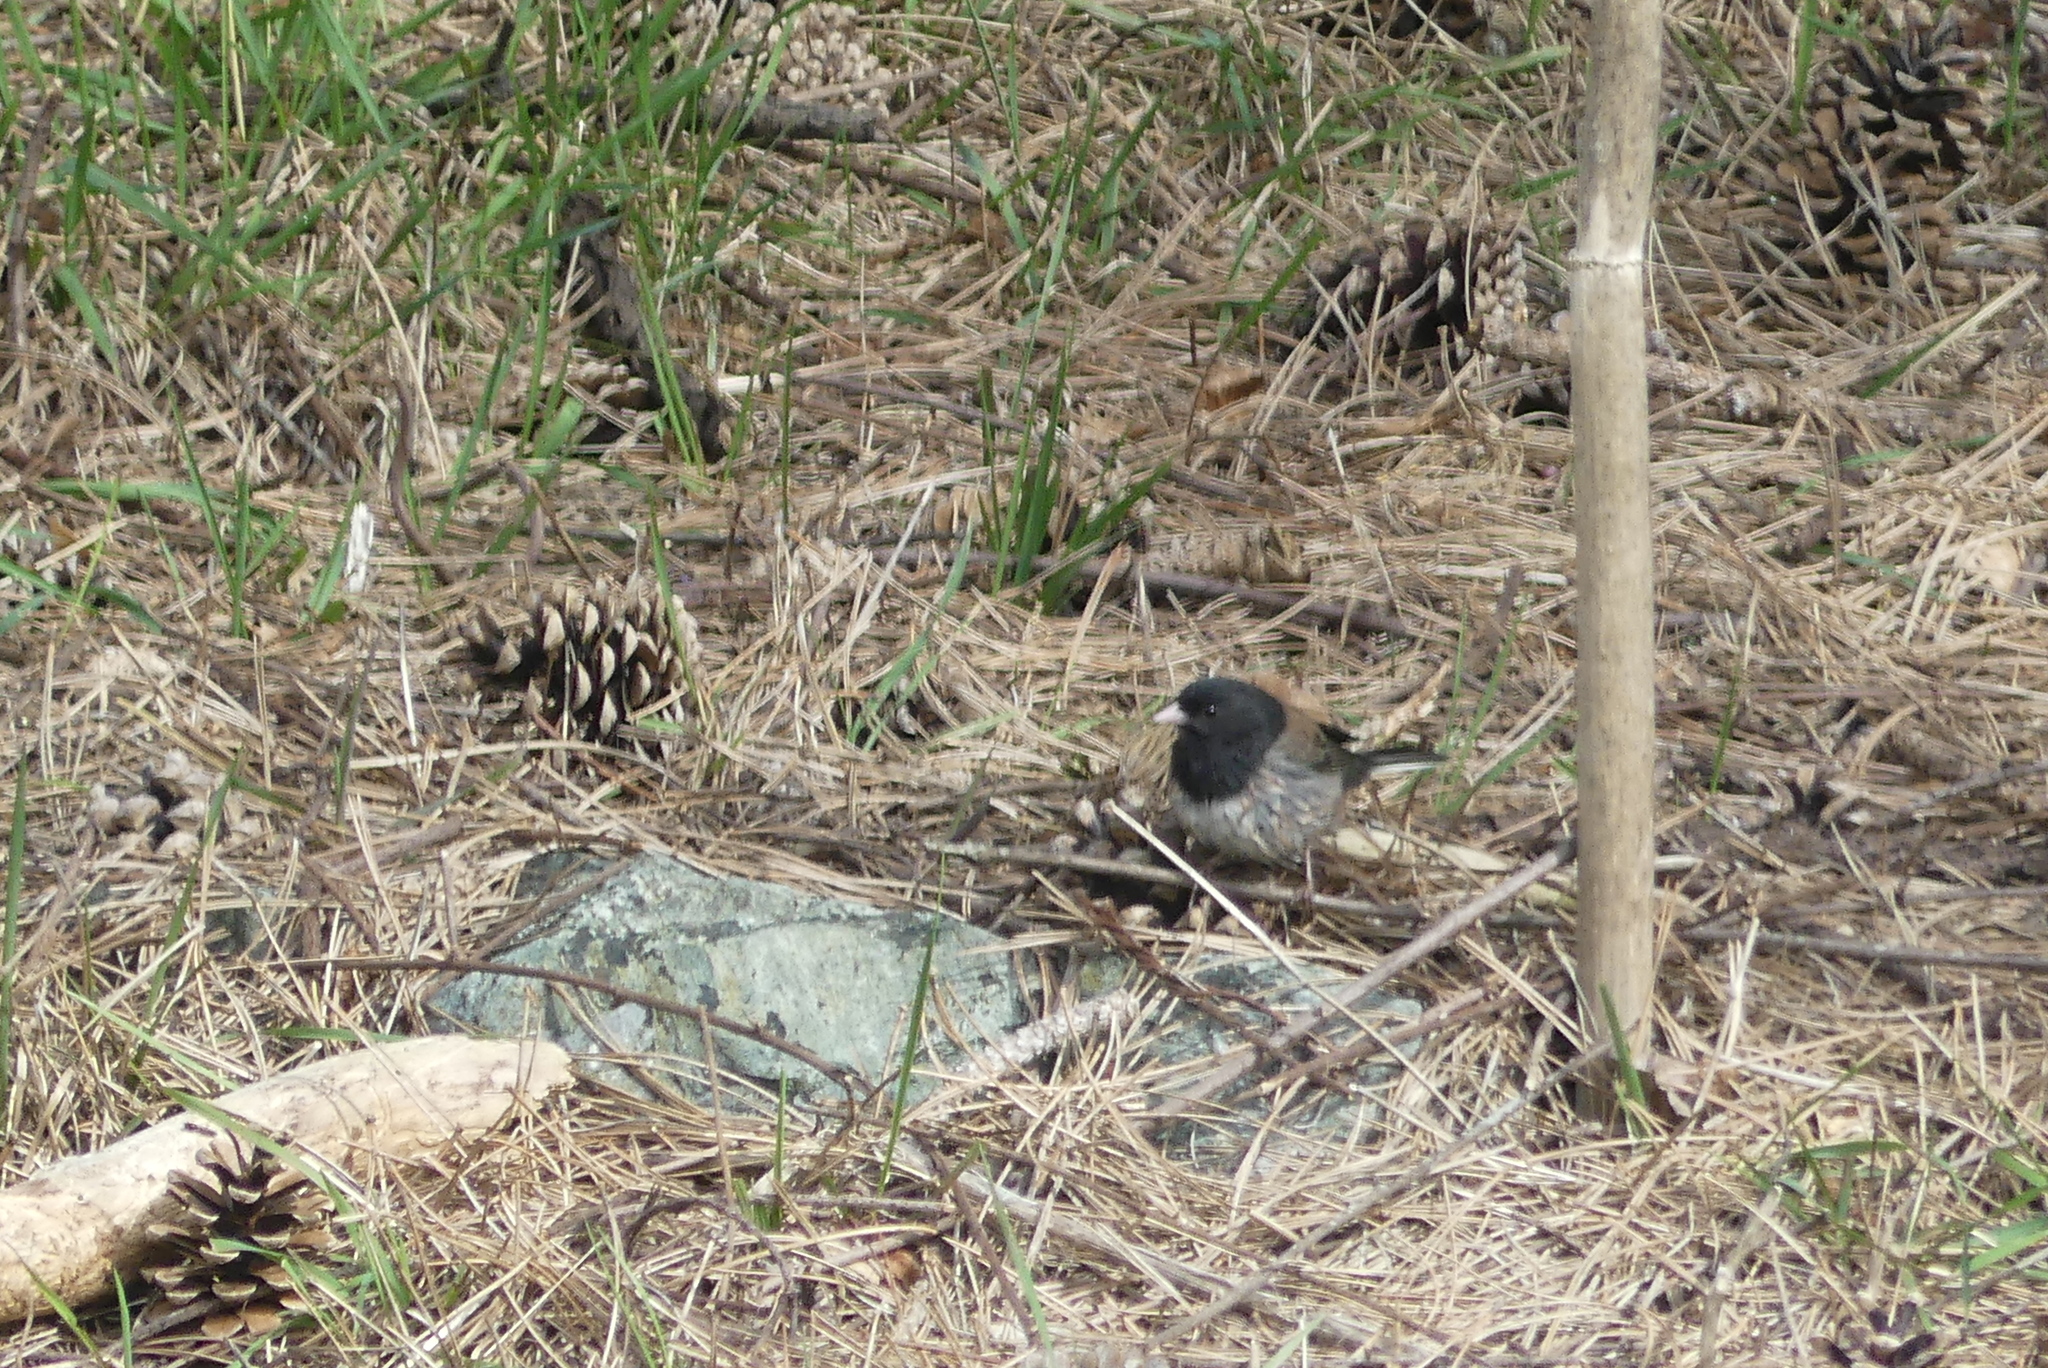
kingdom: Animalia
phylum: Chordata
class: Aves
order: Passeriformes
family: Passerellidae
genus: Junco
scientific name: Junco hyemalis
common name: Dark-eyed junco
